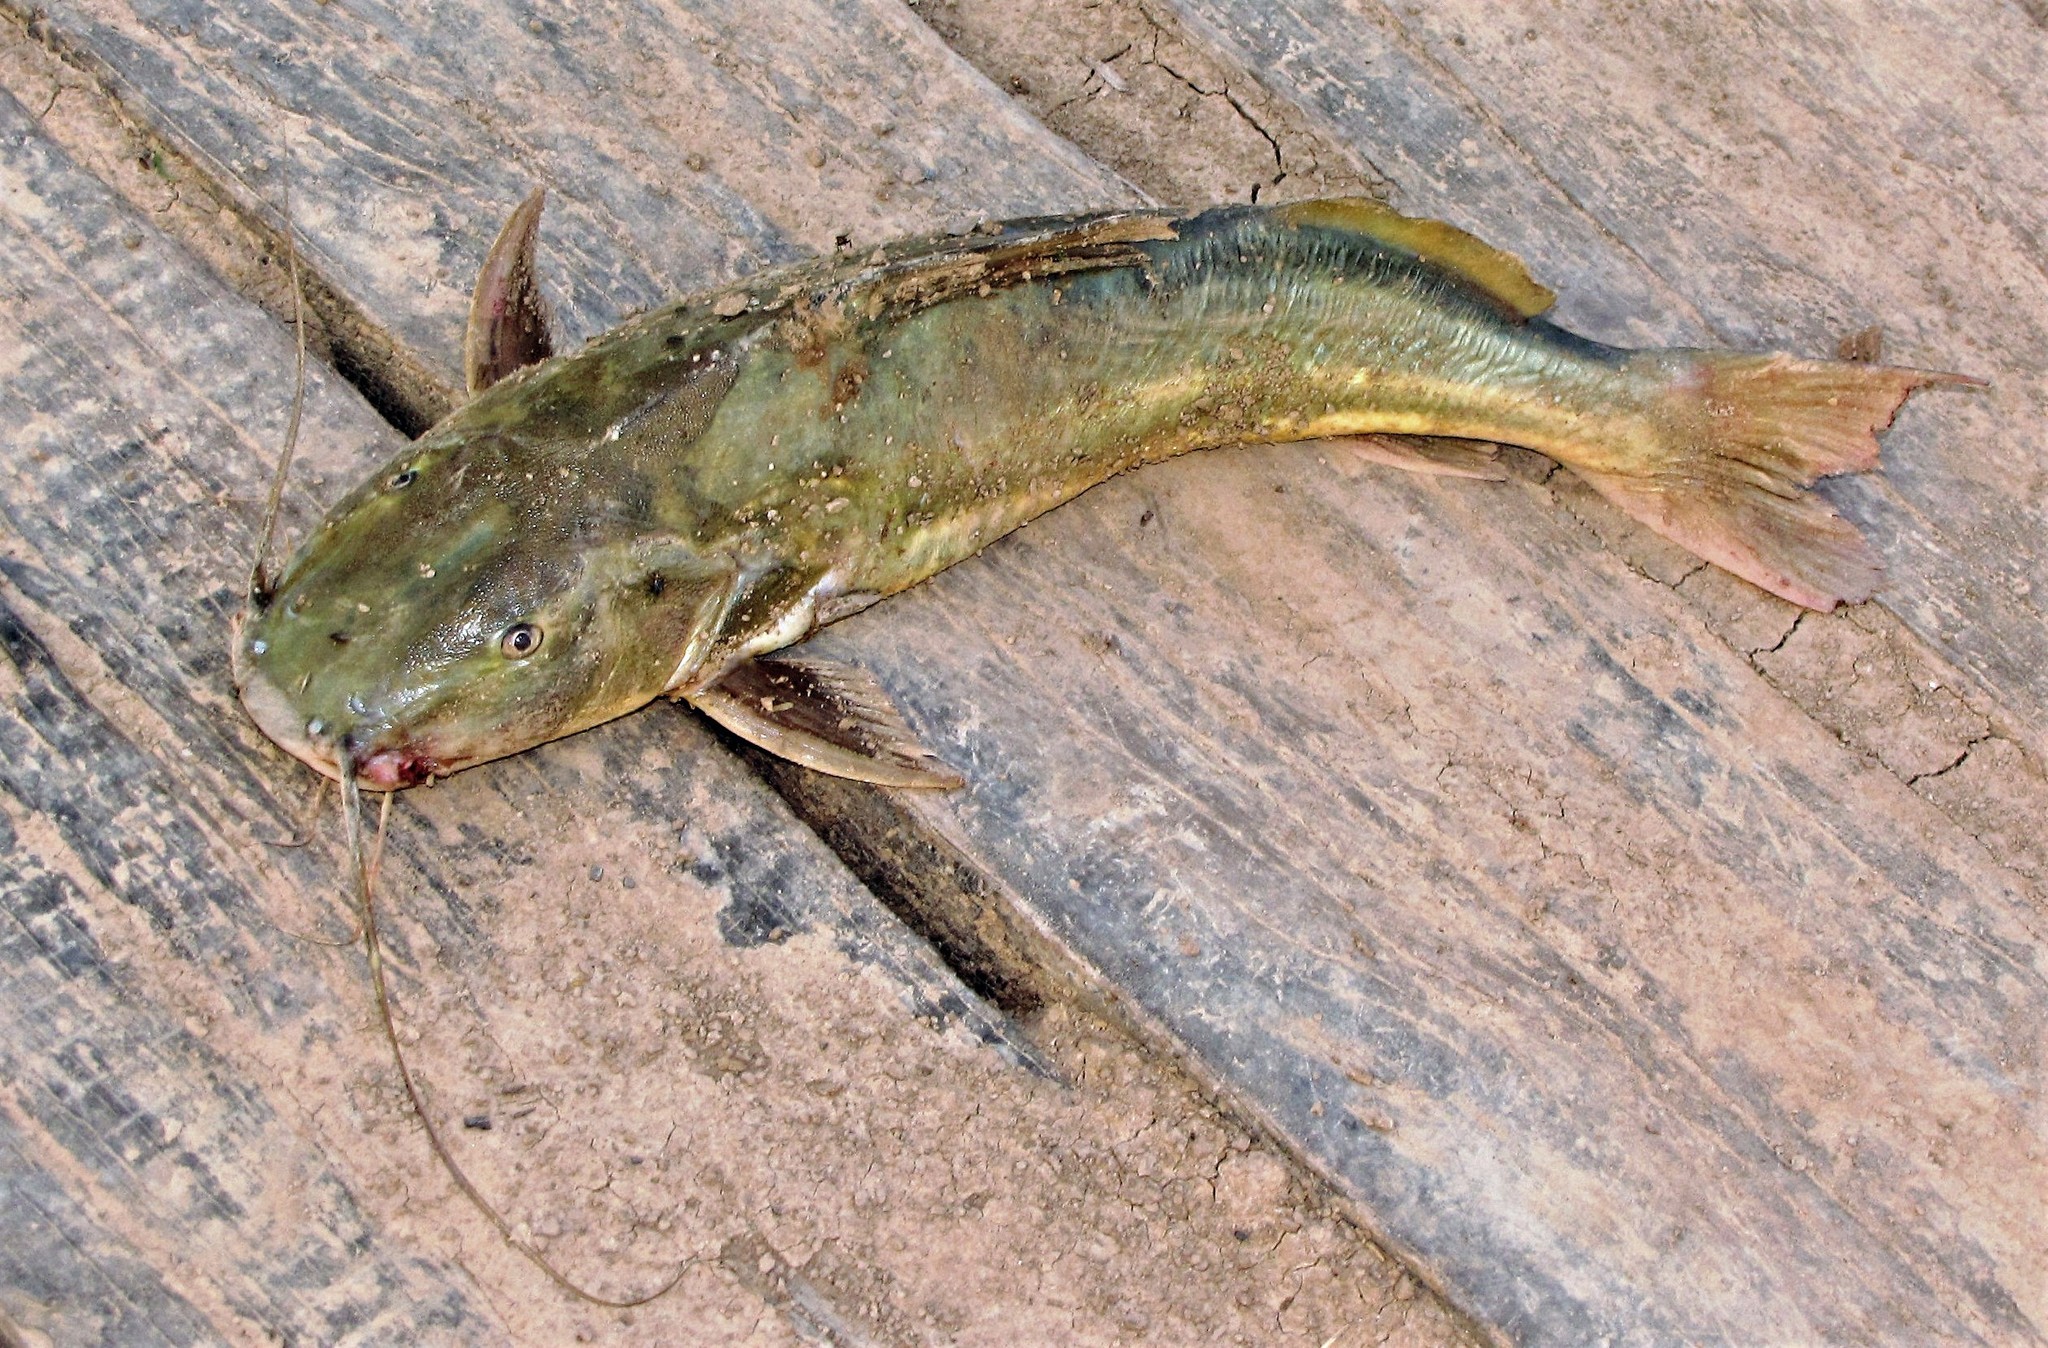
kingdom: Animalia
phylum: Chordata
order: Siluriformes
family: Heptapteridae
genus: Rhamdia
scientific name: Rhamdia quelen
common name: Catfish
